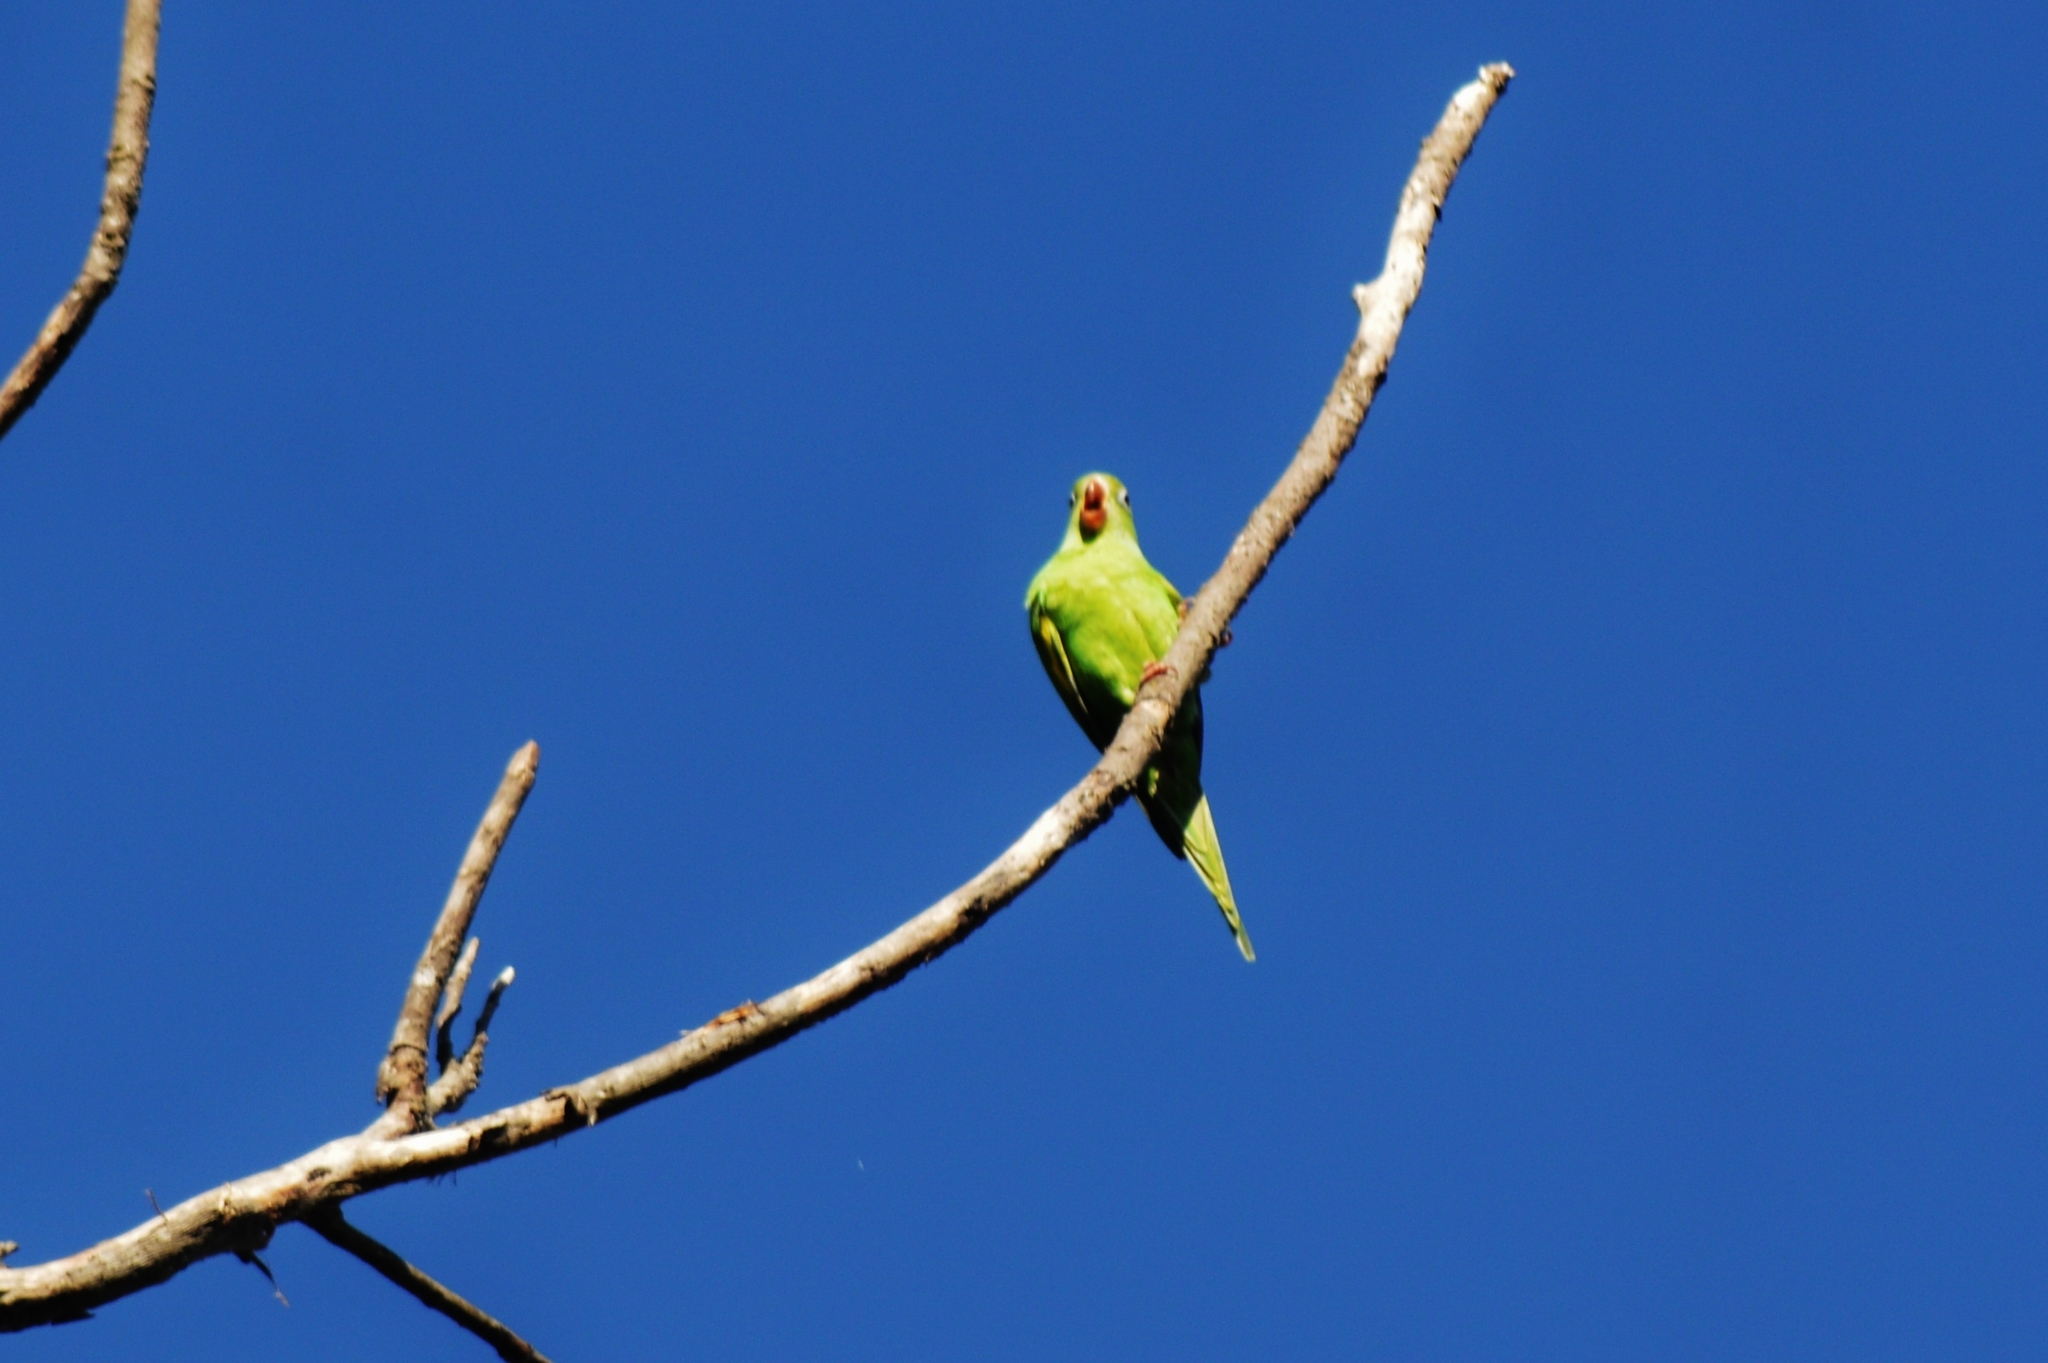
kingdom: Animalia
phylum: Chordata
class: Aves
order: Psittaciformes
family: Psittacidae
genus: Brotogeris
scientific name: Brotogeris chiriri
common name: Yellow-chevroned parakeet
